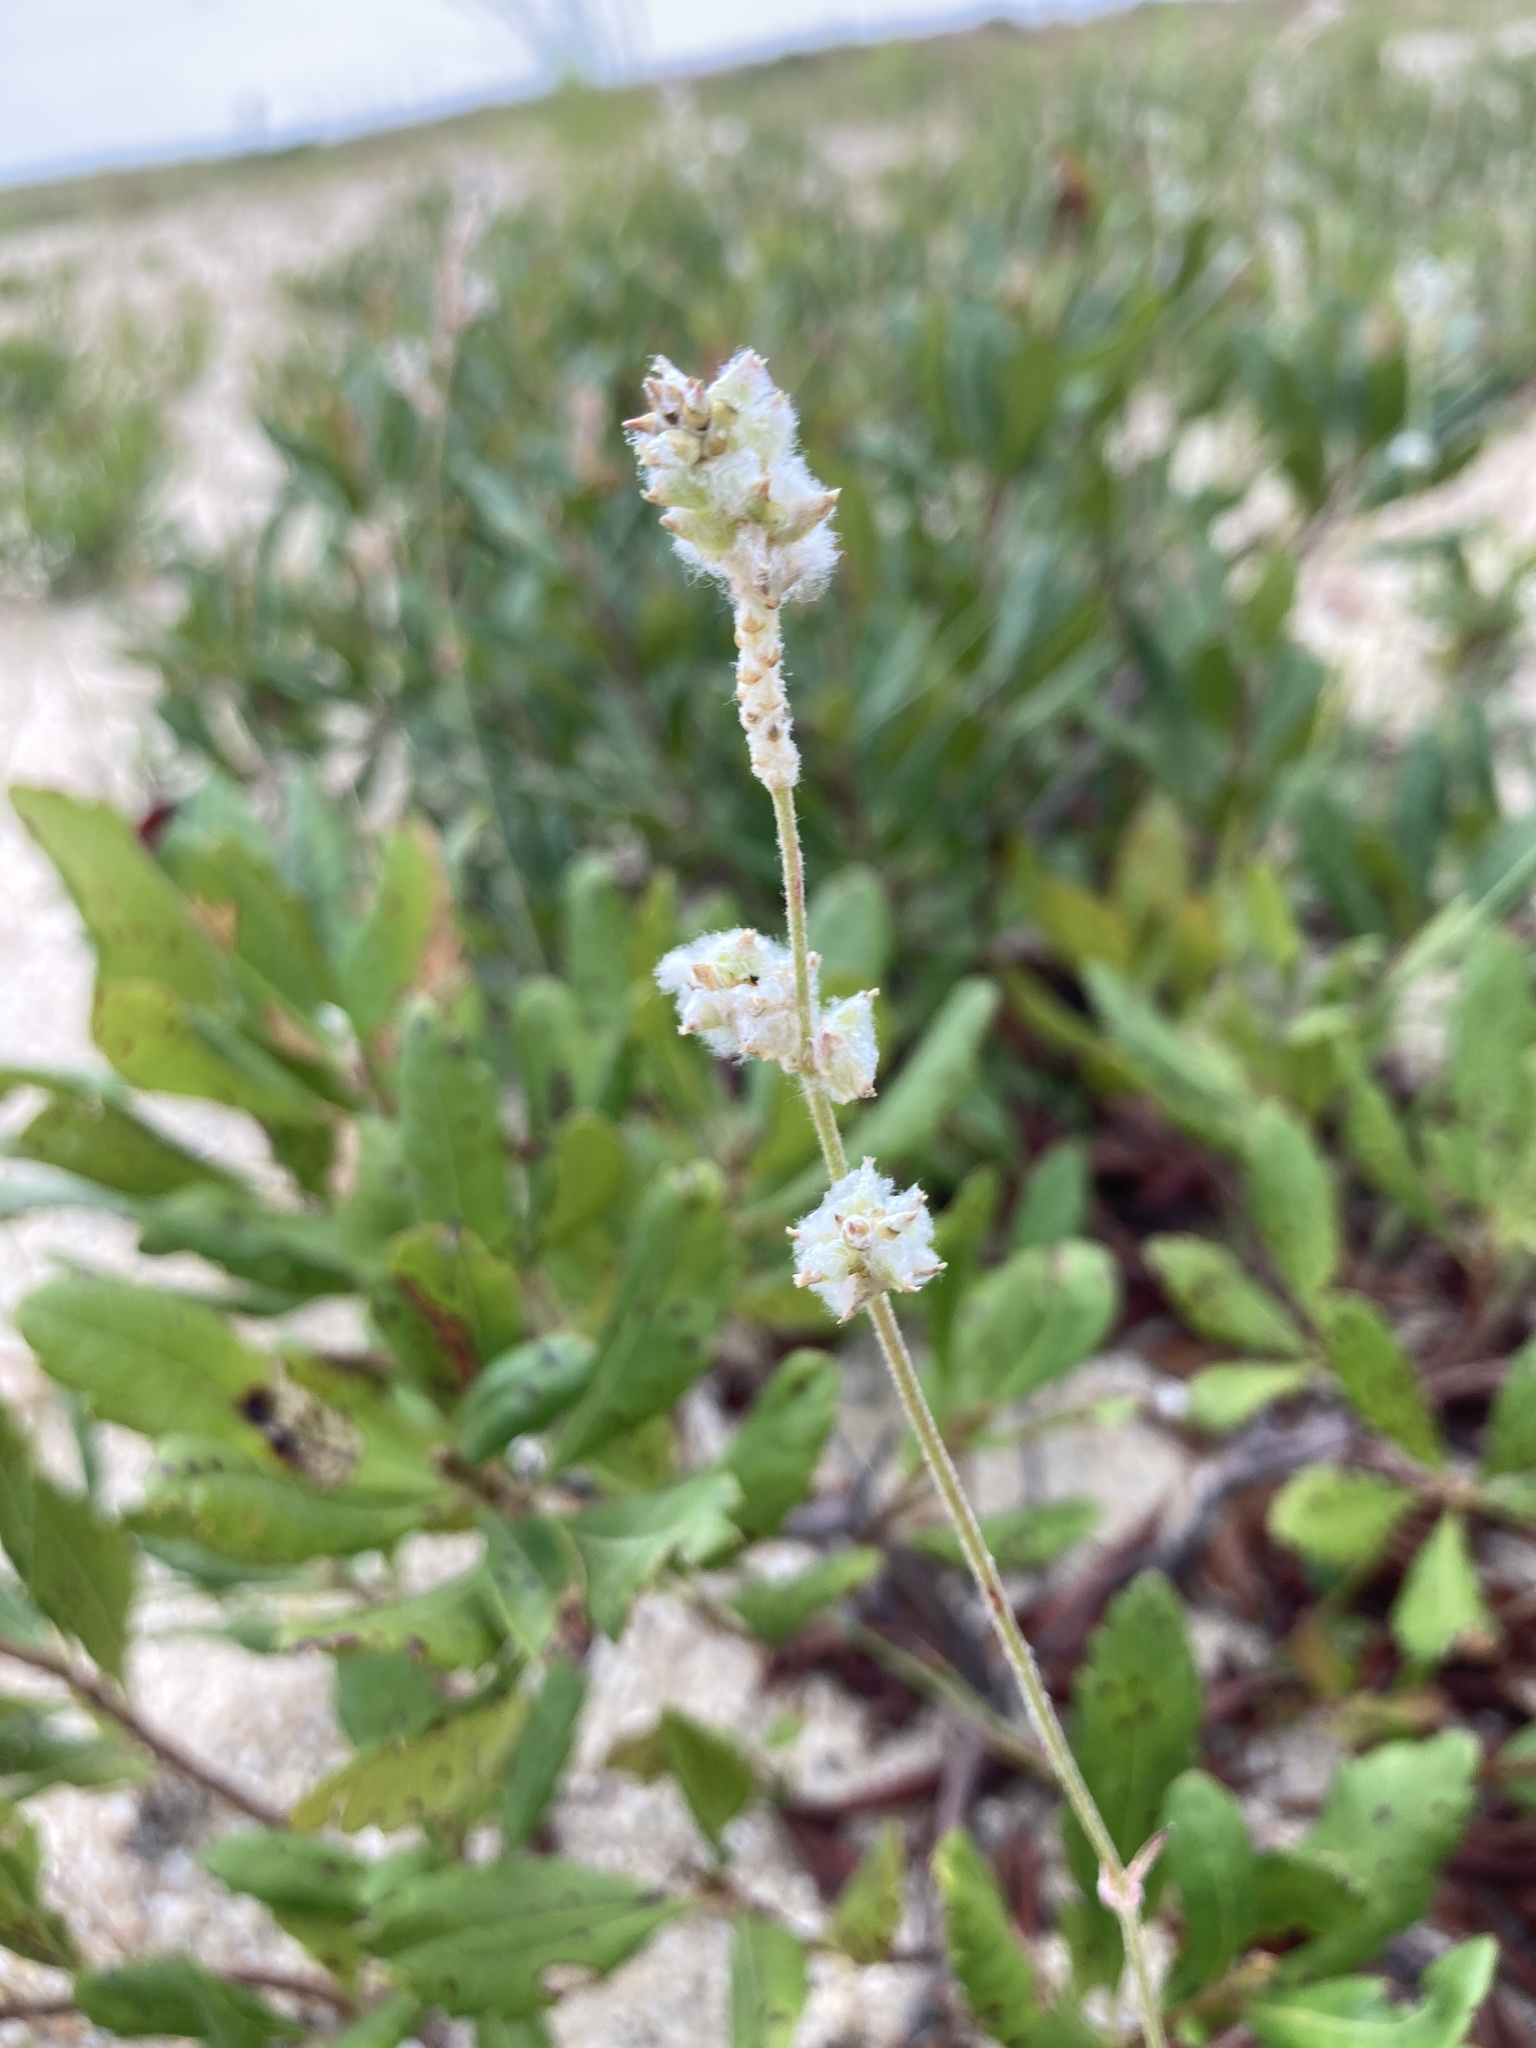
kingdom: Plantae
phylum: Tracheophyta
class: Magnoliopsida
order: Caryophyllales
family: Amaranthaceae
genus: Froelichia
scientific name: Froelichia gracilis
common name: Slender cottonweed
